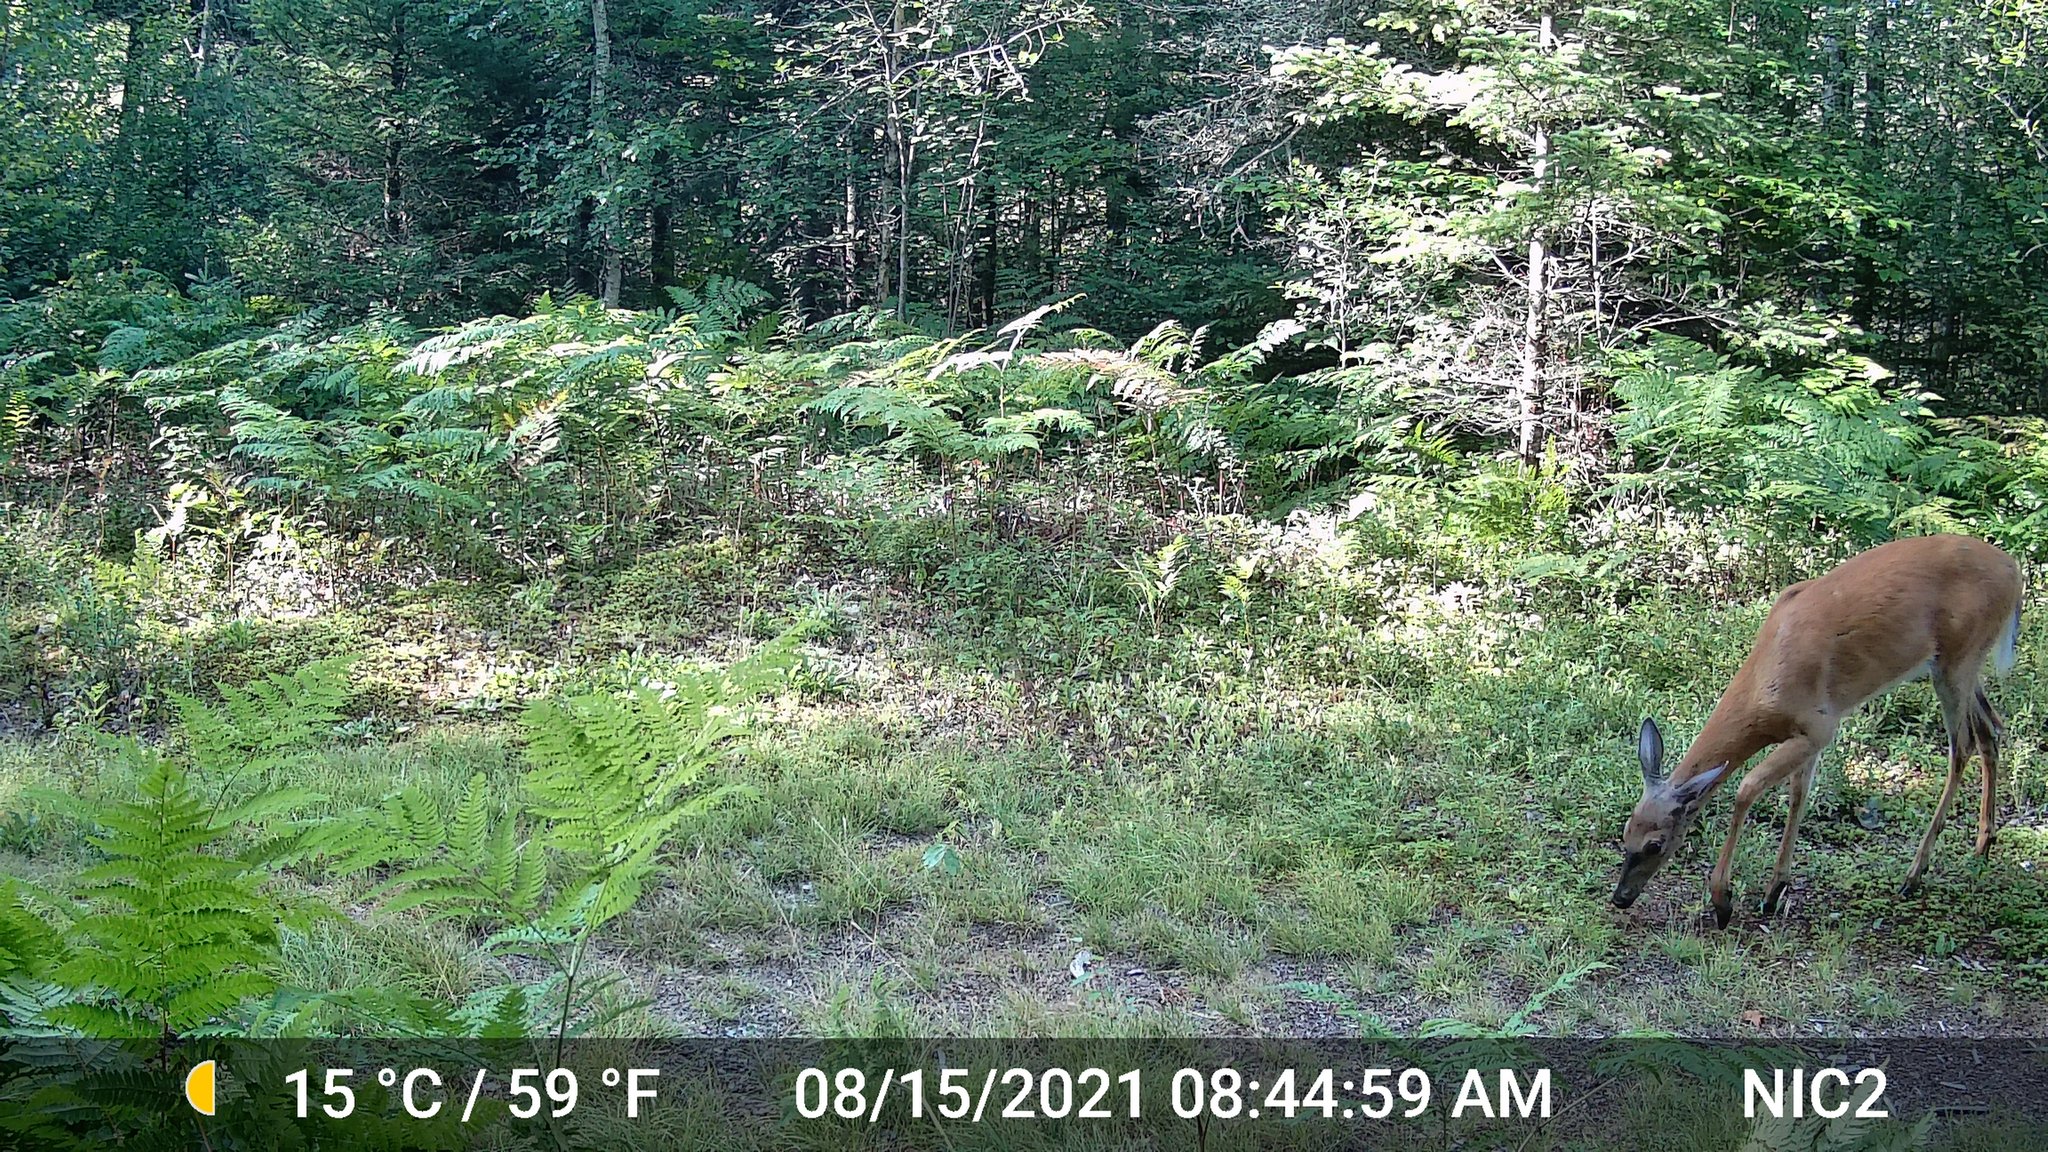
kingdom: Animalia
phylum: Chordata
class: Mammalia
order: Artiodactyla
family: Cervidae
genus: Odocoileus
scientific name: Odocoileus virginianus
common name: White-tailed deer
